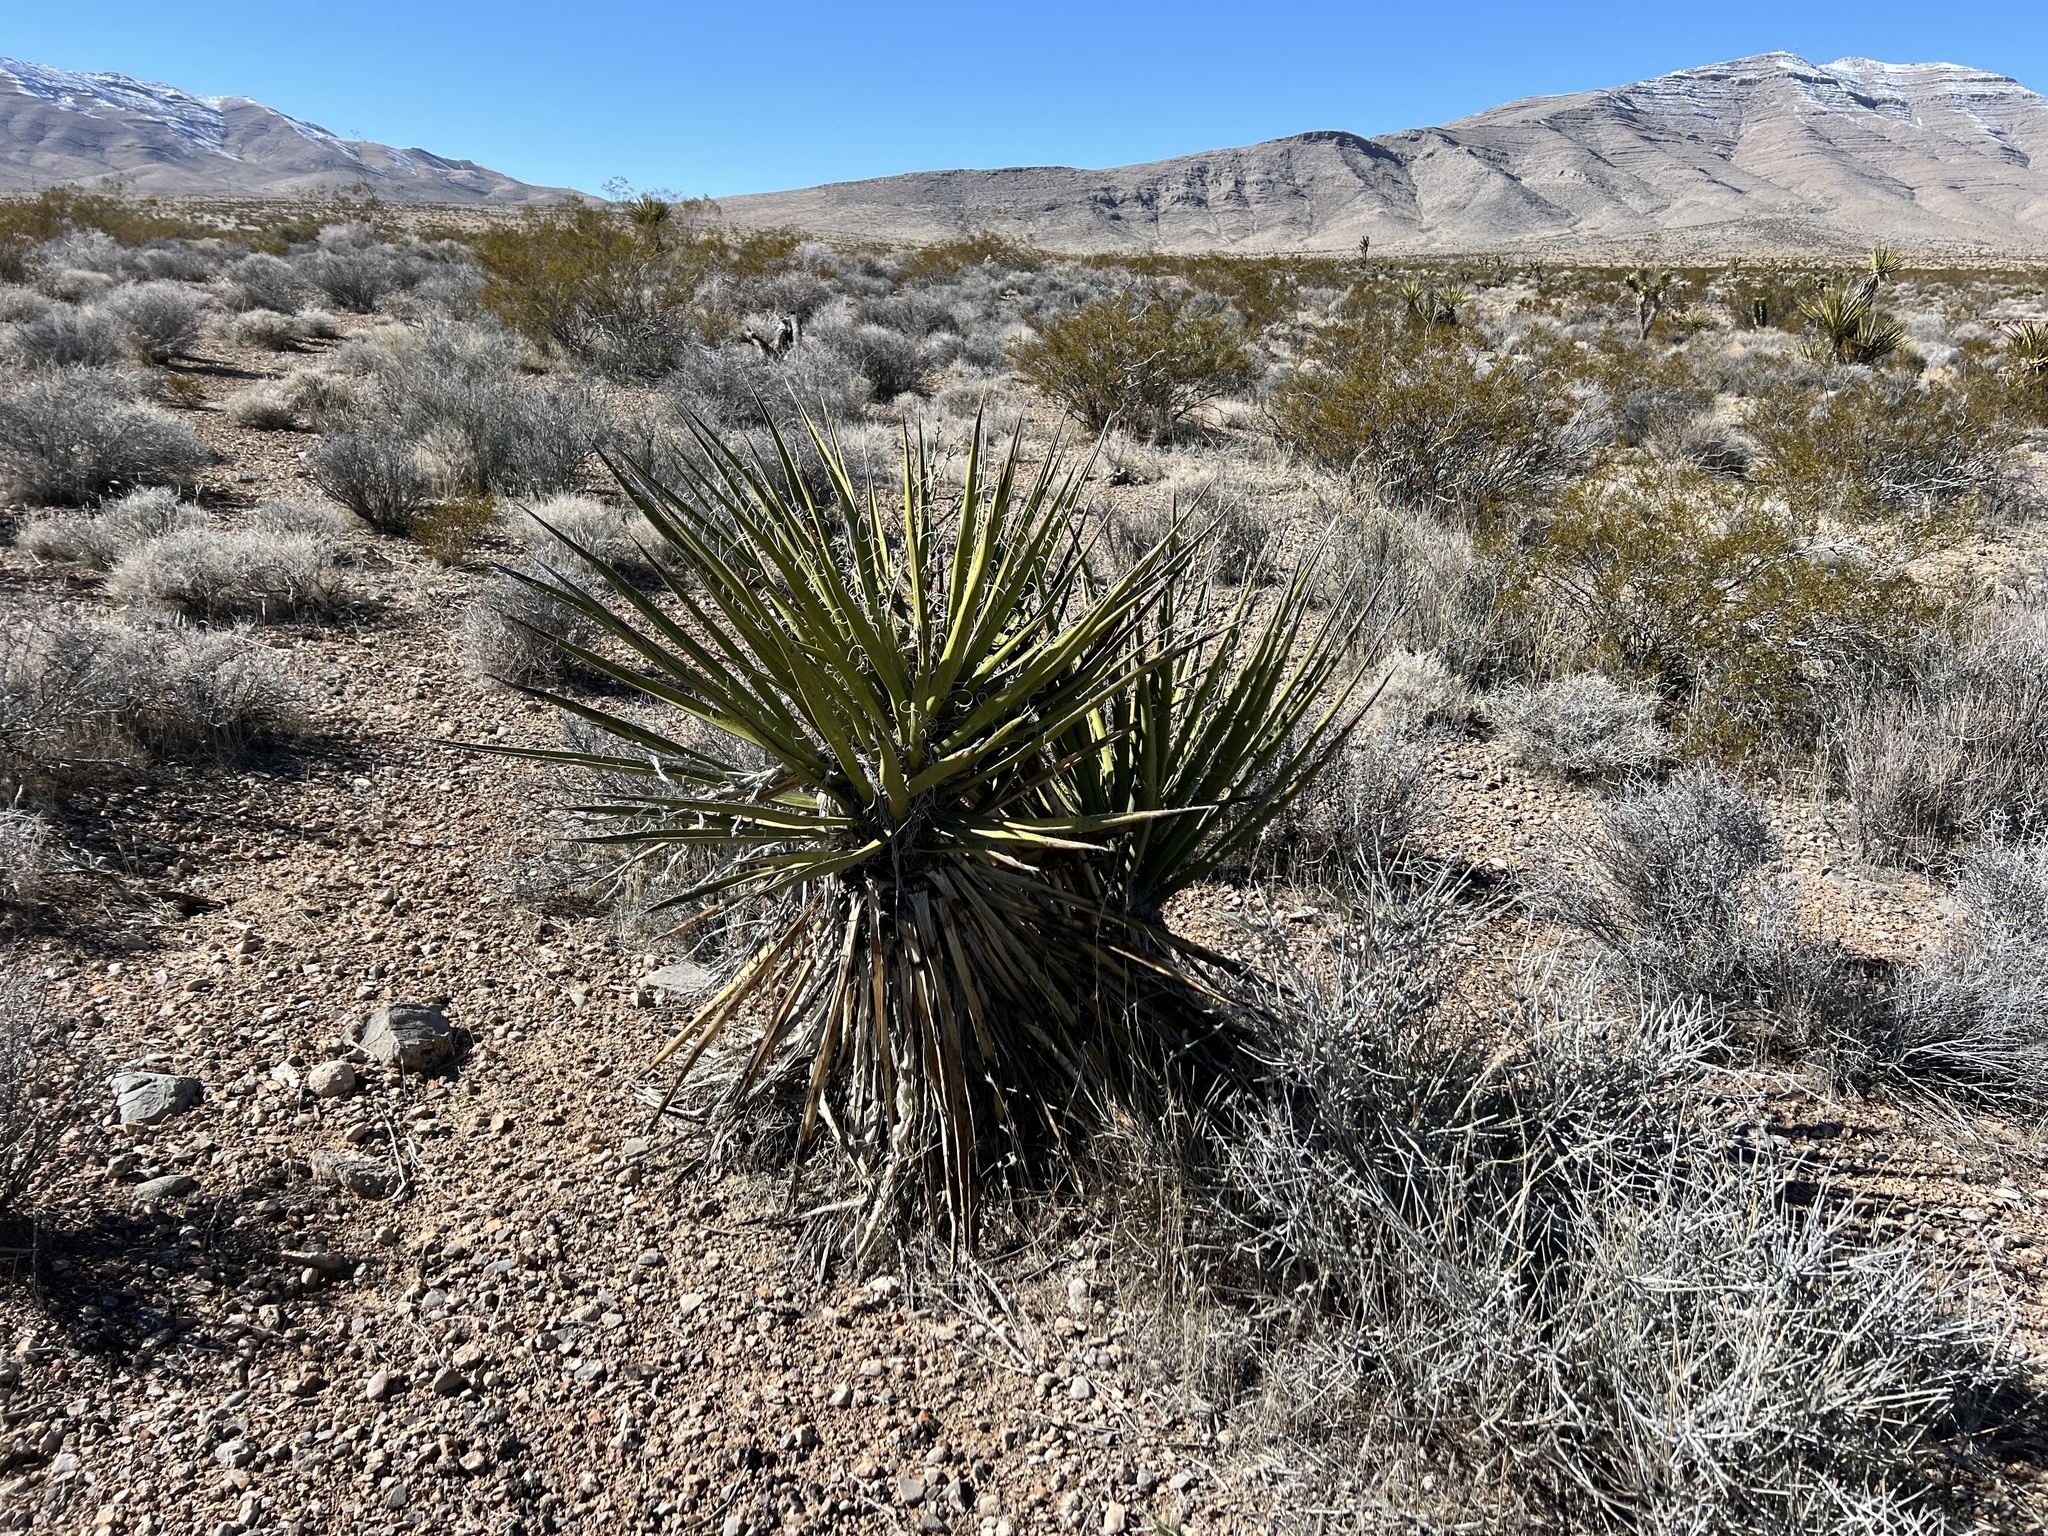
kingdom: Plantae
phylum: Tracheophyta
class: Liliopsida
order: Asparagales
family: Asparagaceae
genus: Yucca
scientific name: Yucca schidigera
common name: Mojave yucca
